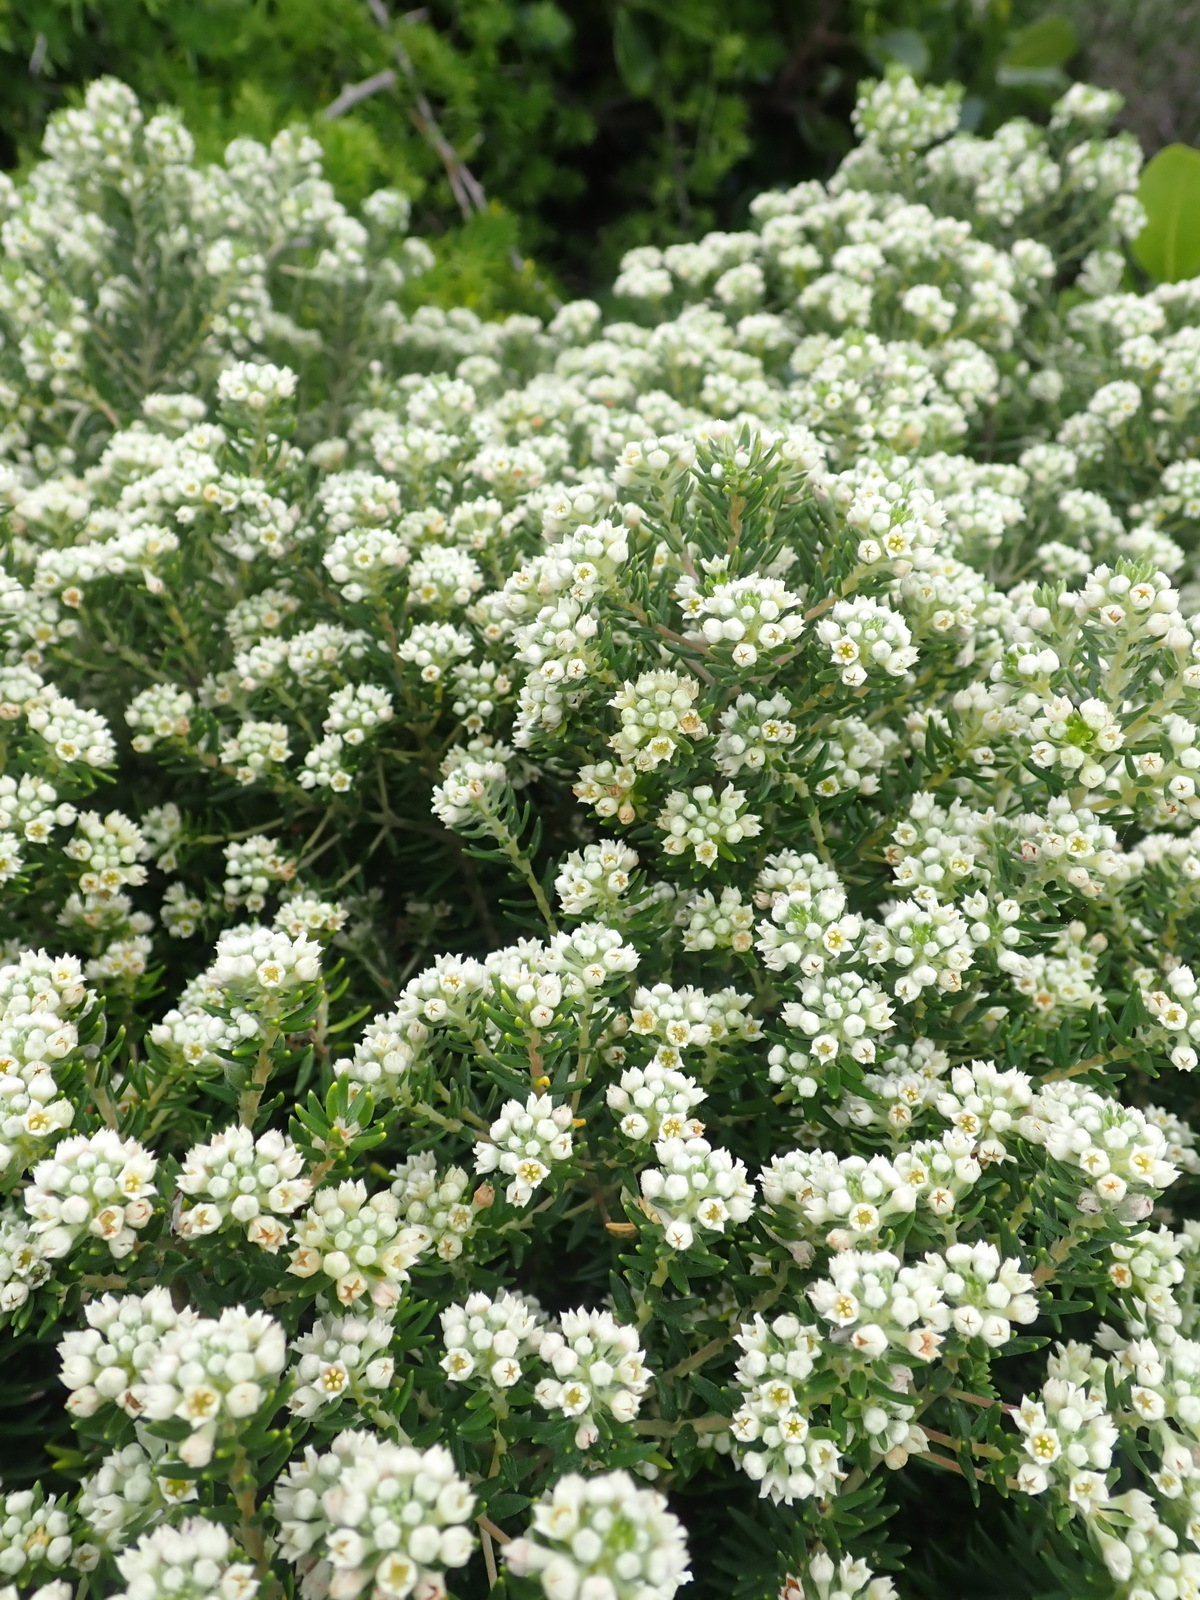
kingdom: Plantae
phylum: Tracheophyta
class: Magnoliopsida
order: Rosales
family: Rhamnaceae
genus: Phylica
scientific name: Phylica axillaris
